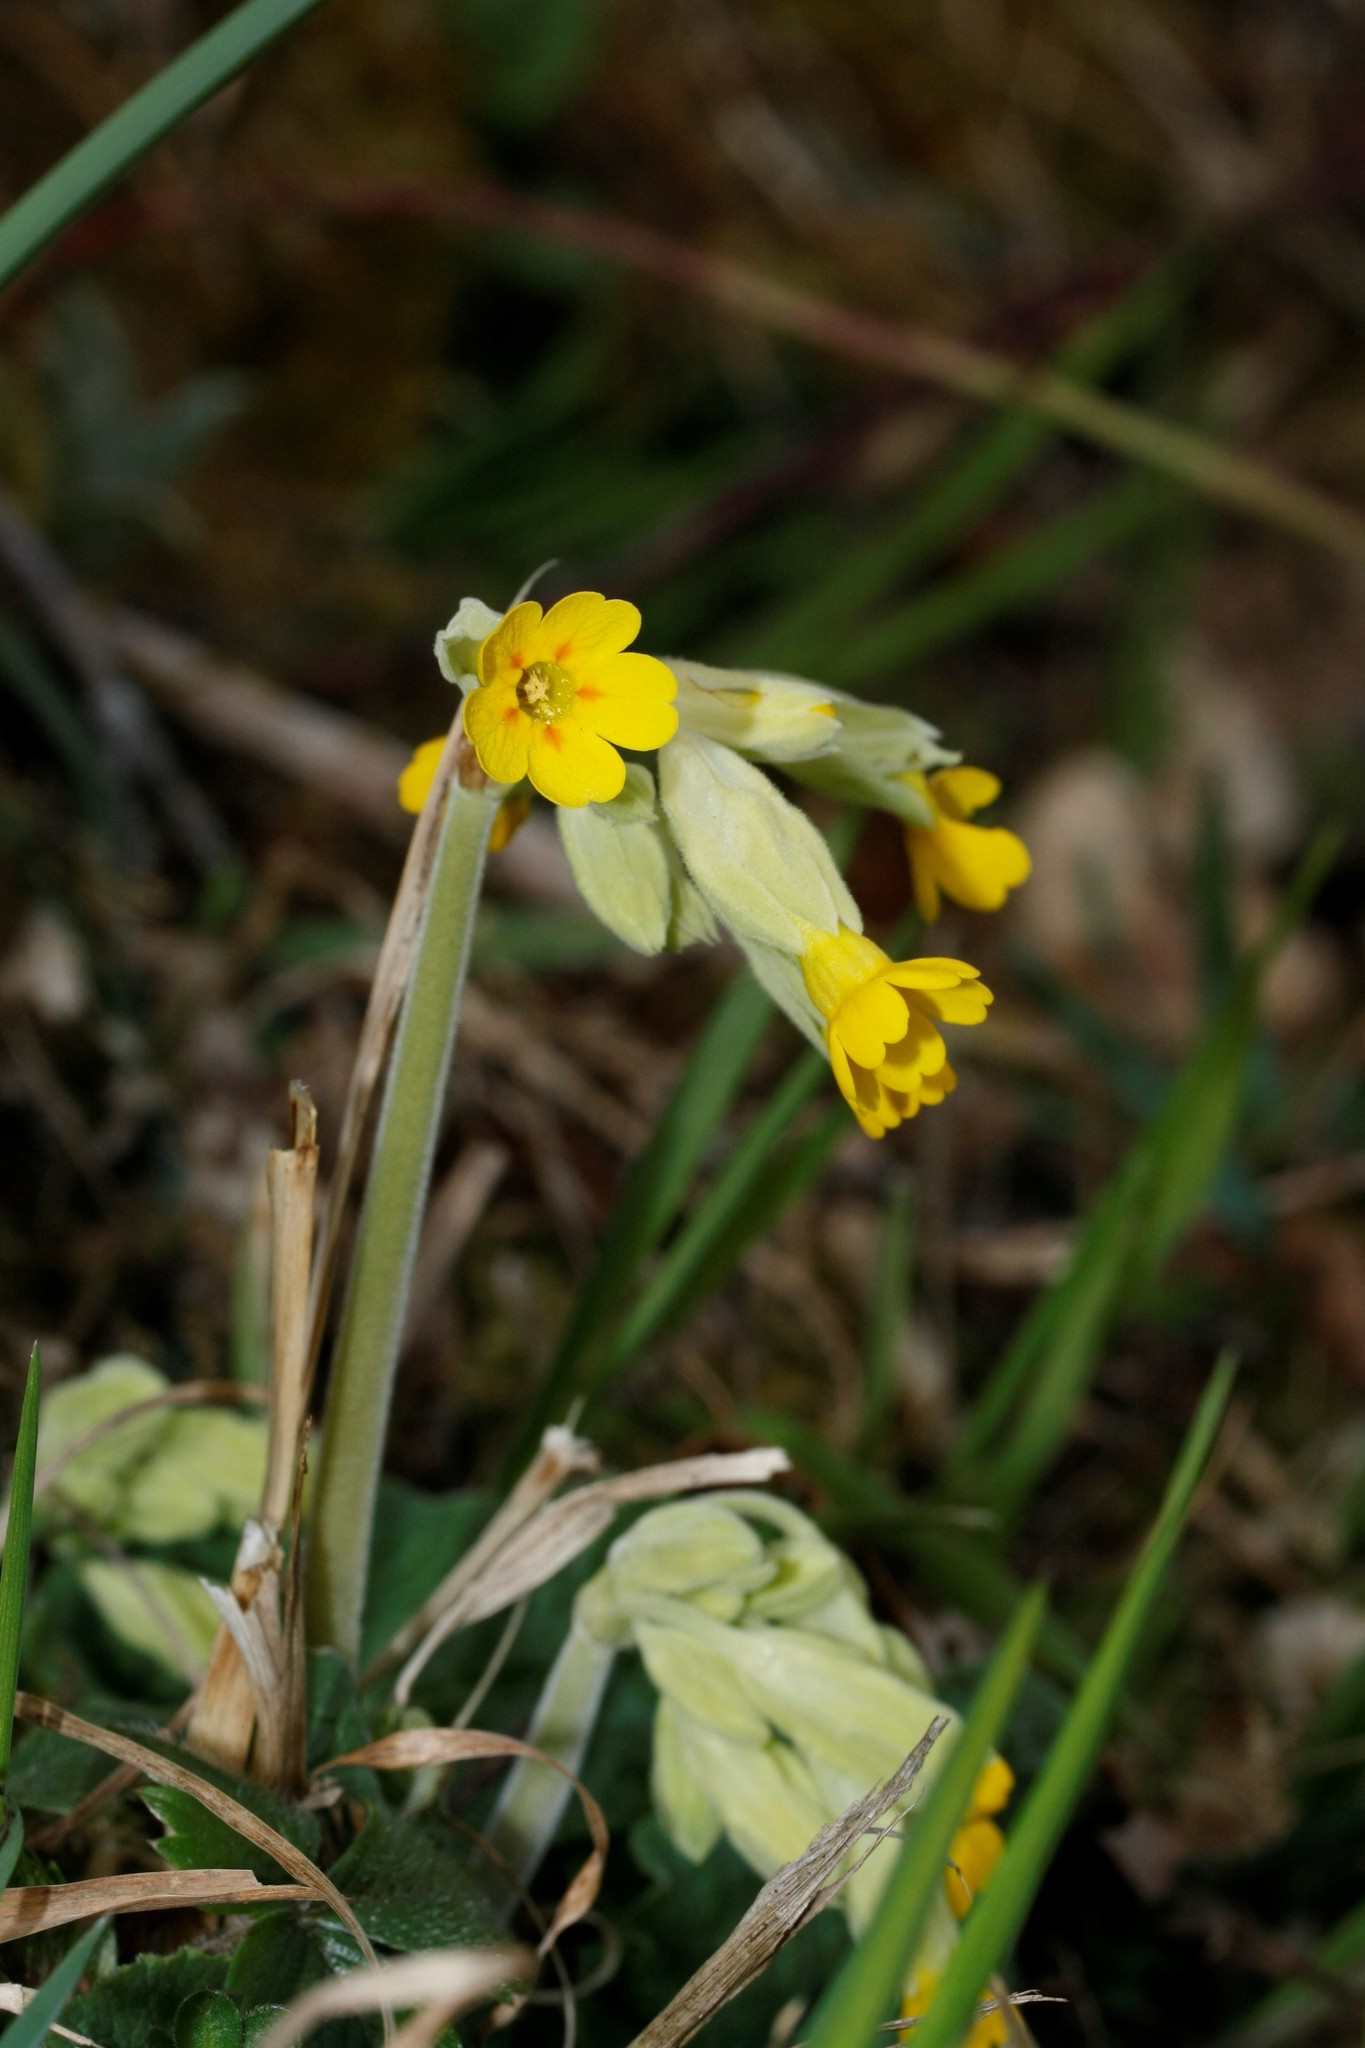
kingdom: Plantae
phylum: Tracheophyta
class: Magnoliopsida
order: Ericales
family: Primulaceae
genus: Primula
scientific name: Primula veris
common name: Cowslip
